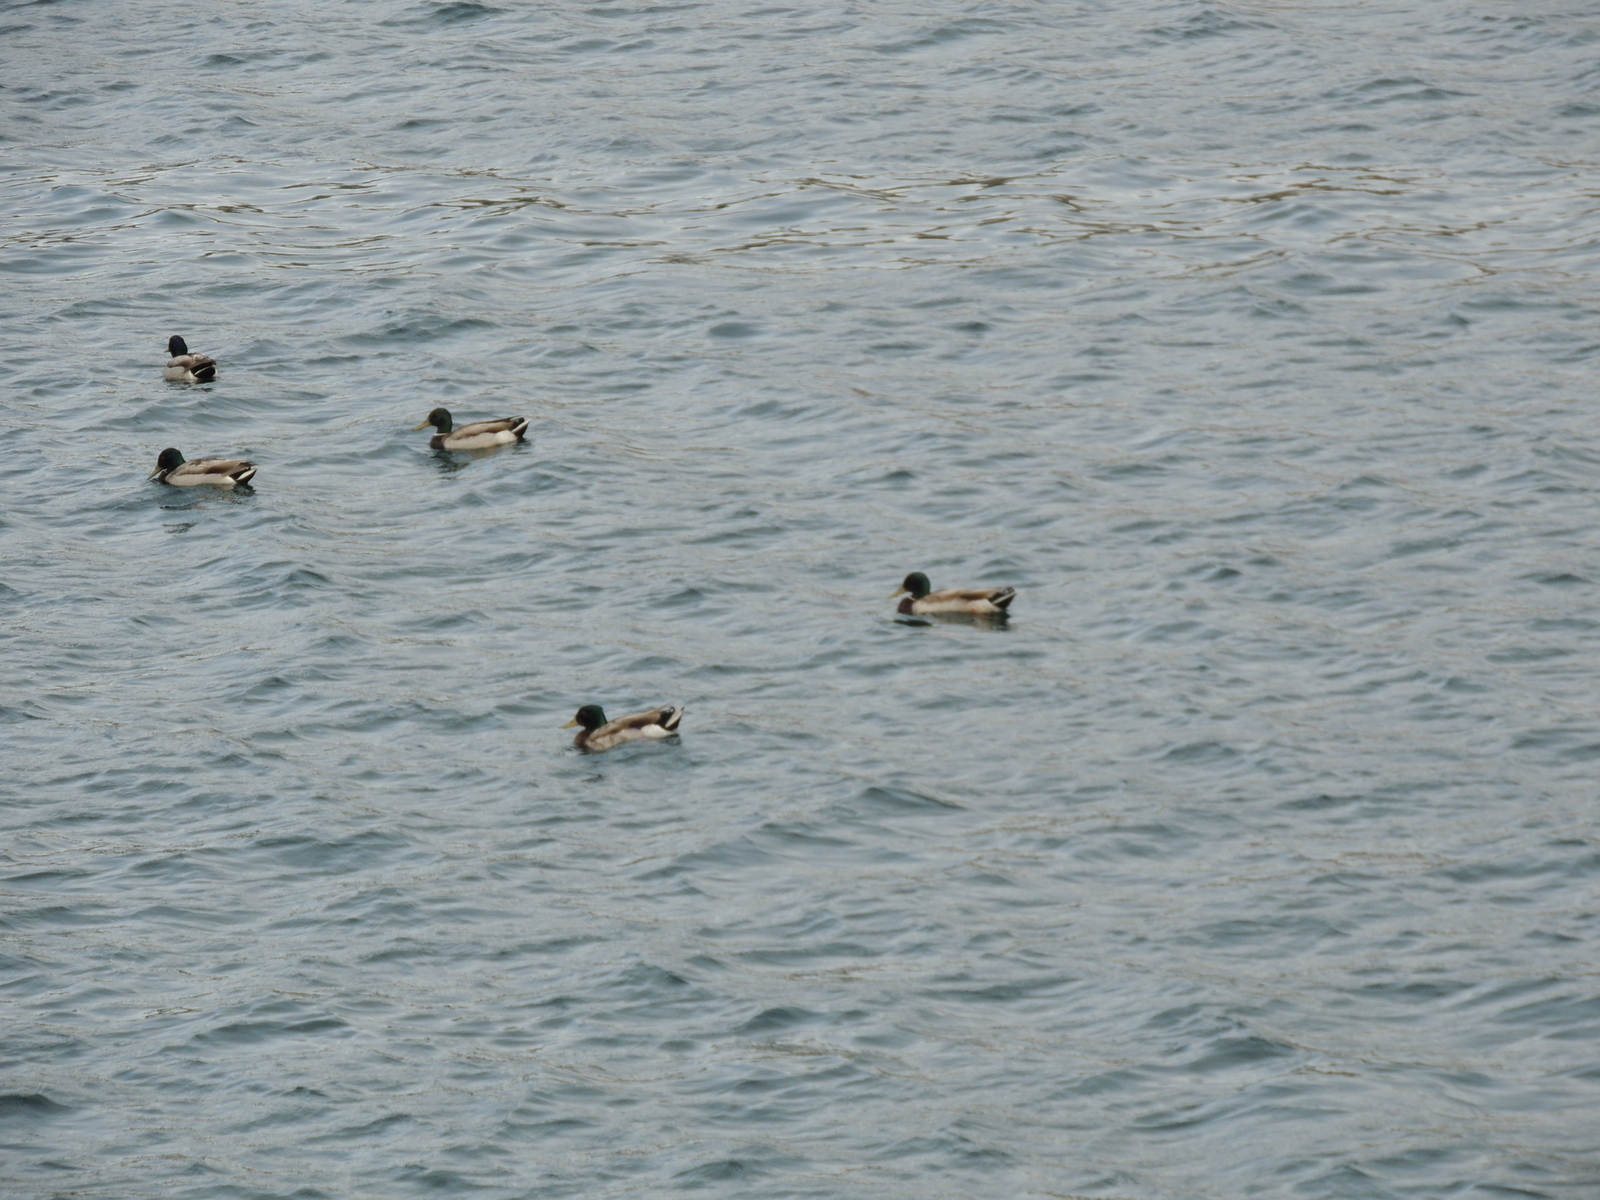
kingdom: Animalia
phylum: Chordata
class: Aves
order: Anseriformes
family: Anatidae
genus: Anas
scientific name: Anas platyrhynchos
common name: Mallard
